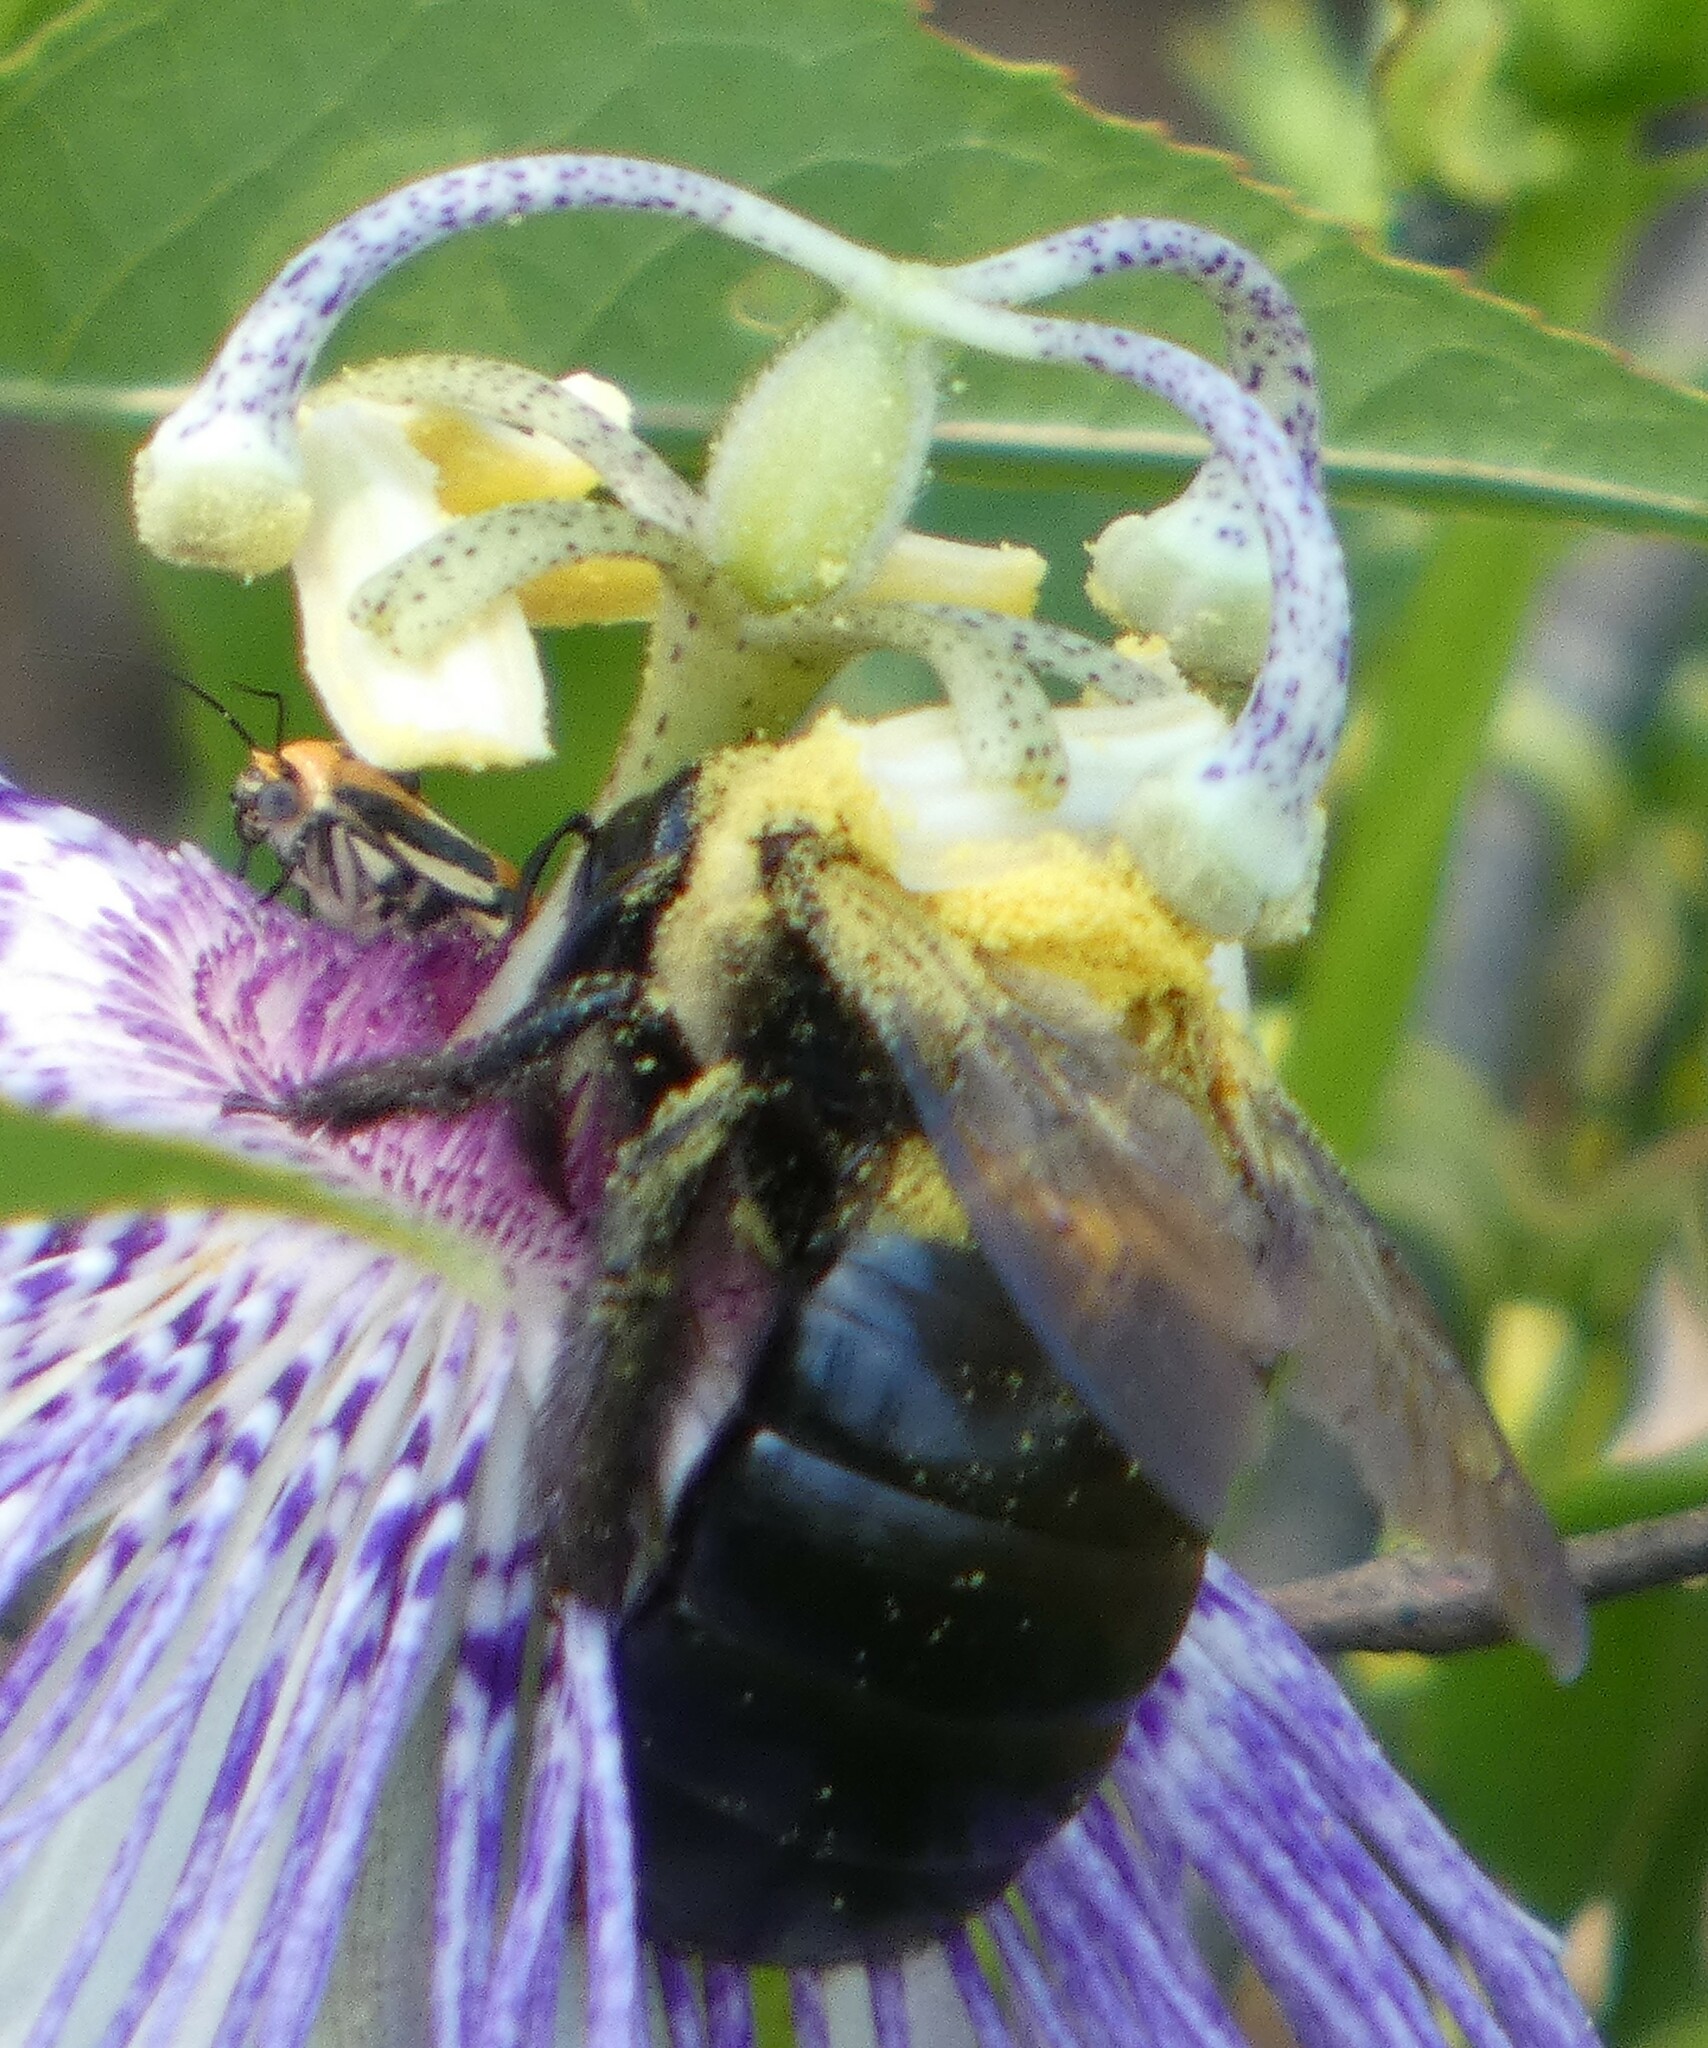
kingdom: Animalia
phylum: Arthropoda
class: Insecta
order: Hymenoptera
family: Apidae
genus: Xylocopa
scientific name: Xylocopa virginica
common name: Carpenter bee
